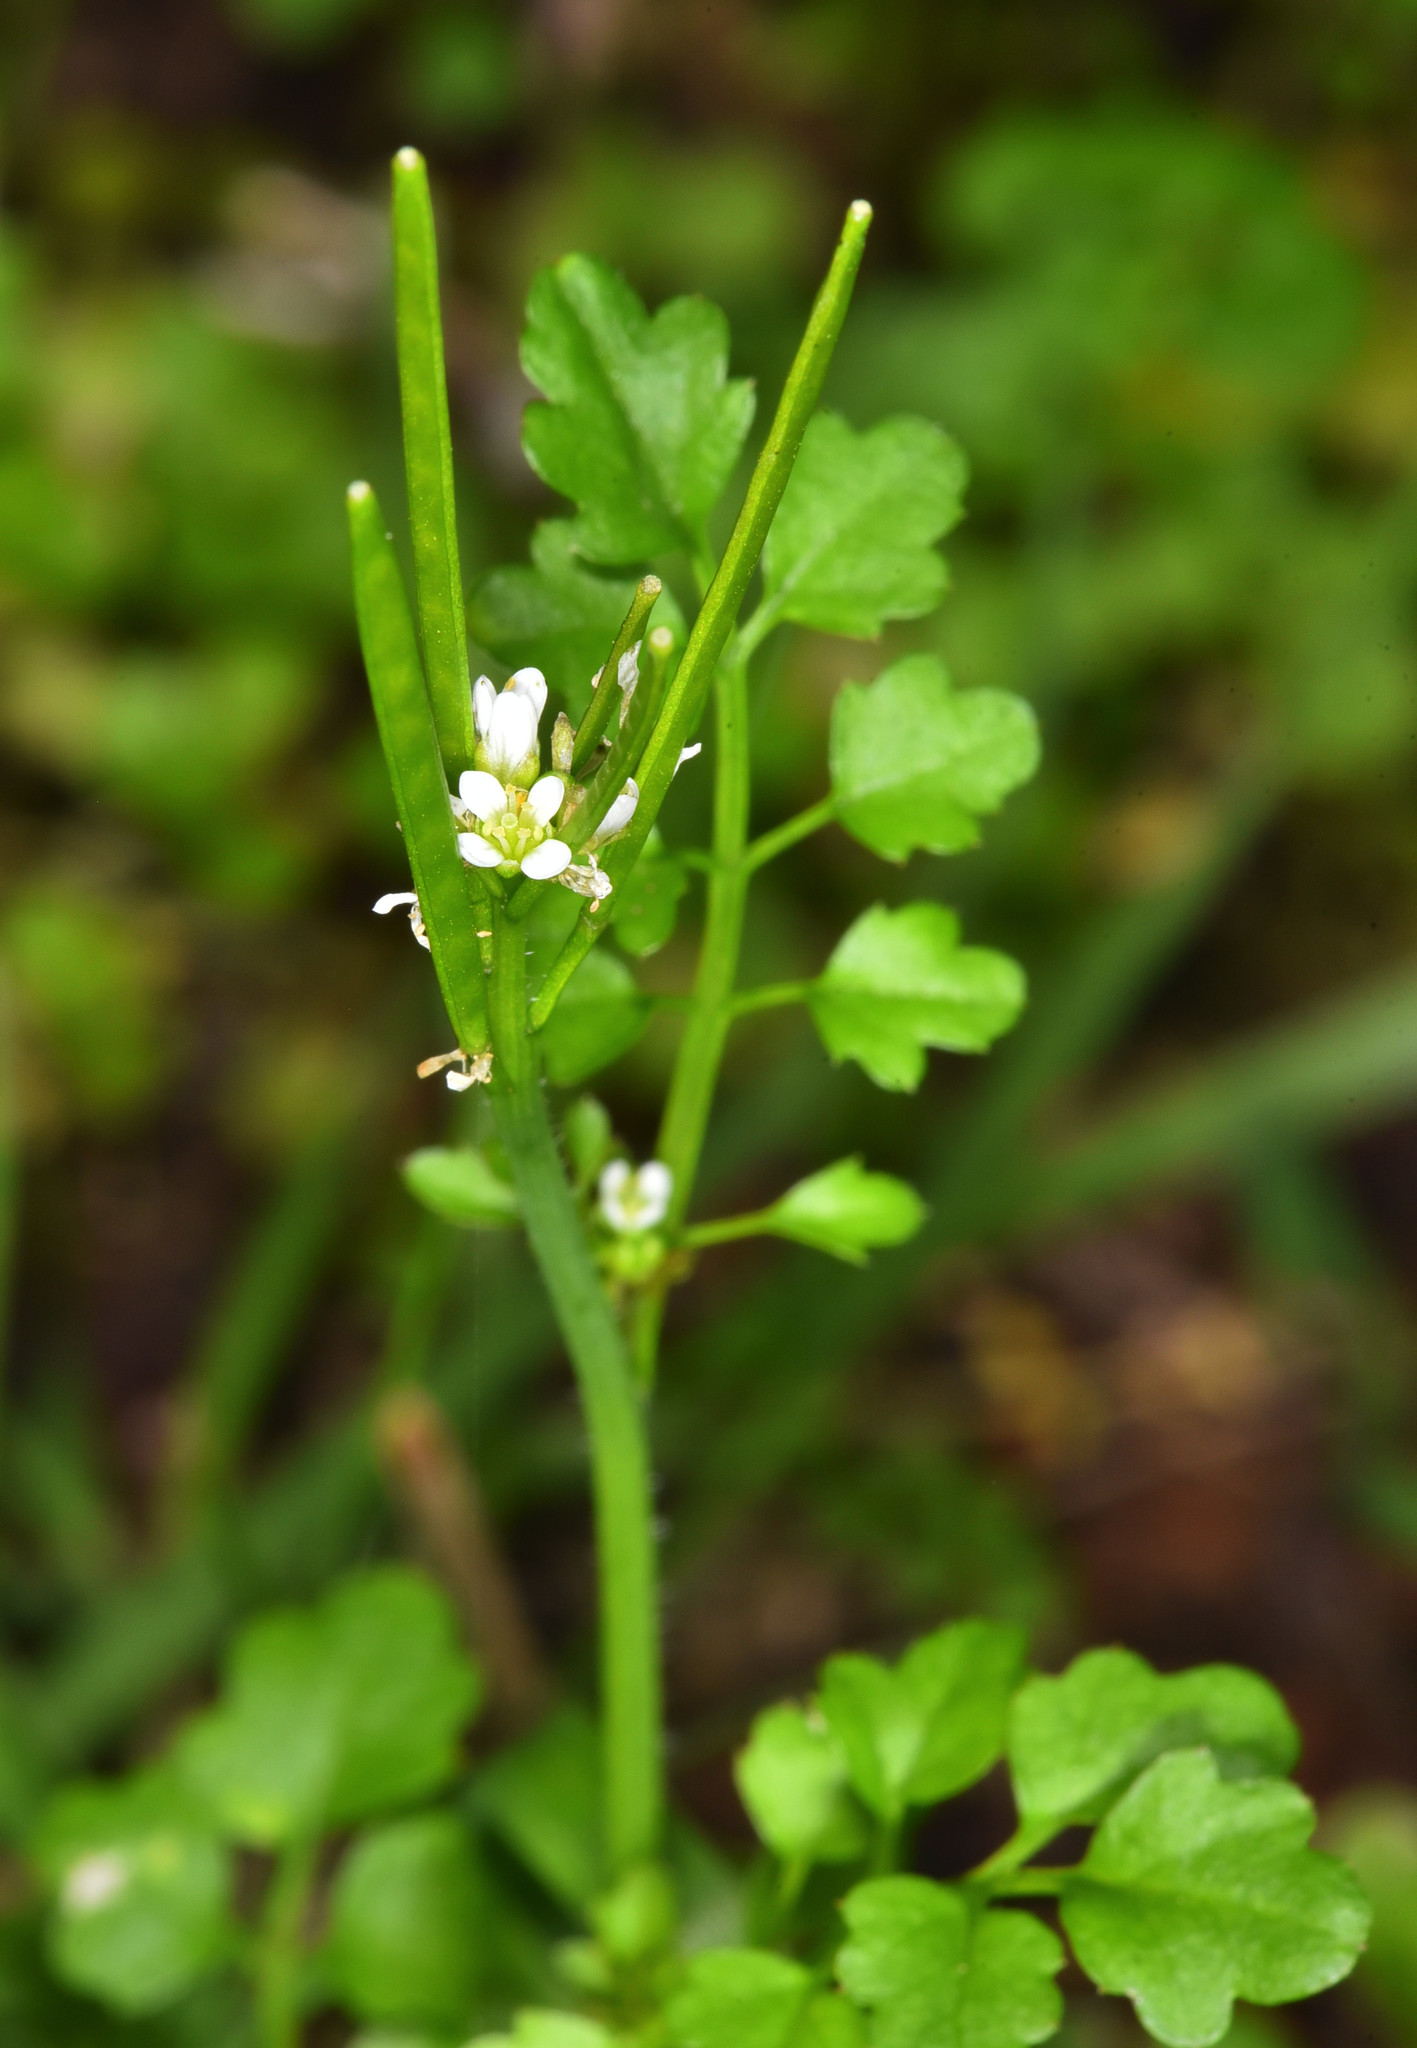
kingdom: Plantae
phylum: Tracheophyta
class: Magnoliopsida
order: Brassicales
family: Brassicaceae
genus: Cardamine
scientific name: Cardamine oligosperma
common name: Idaho bittercress
